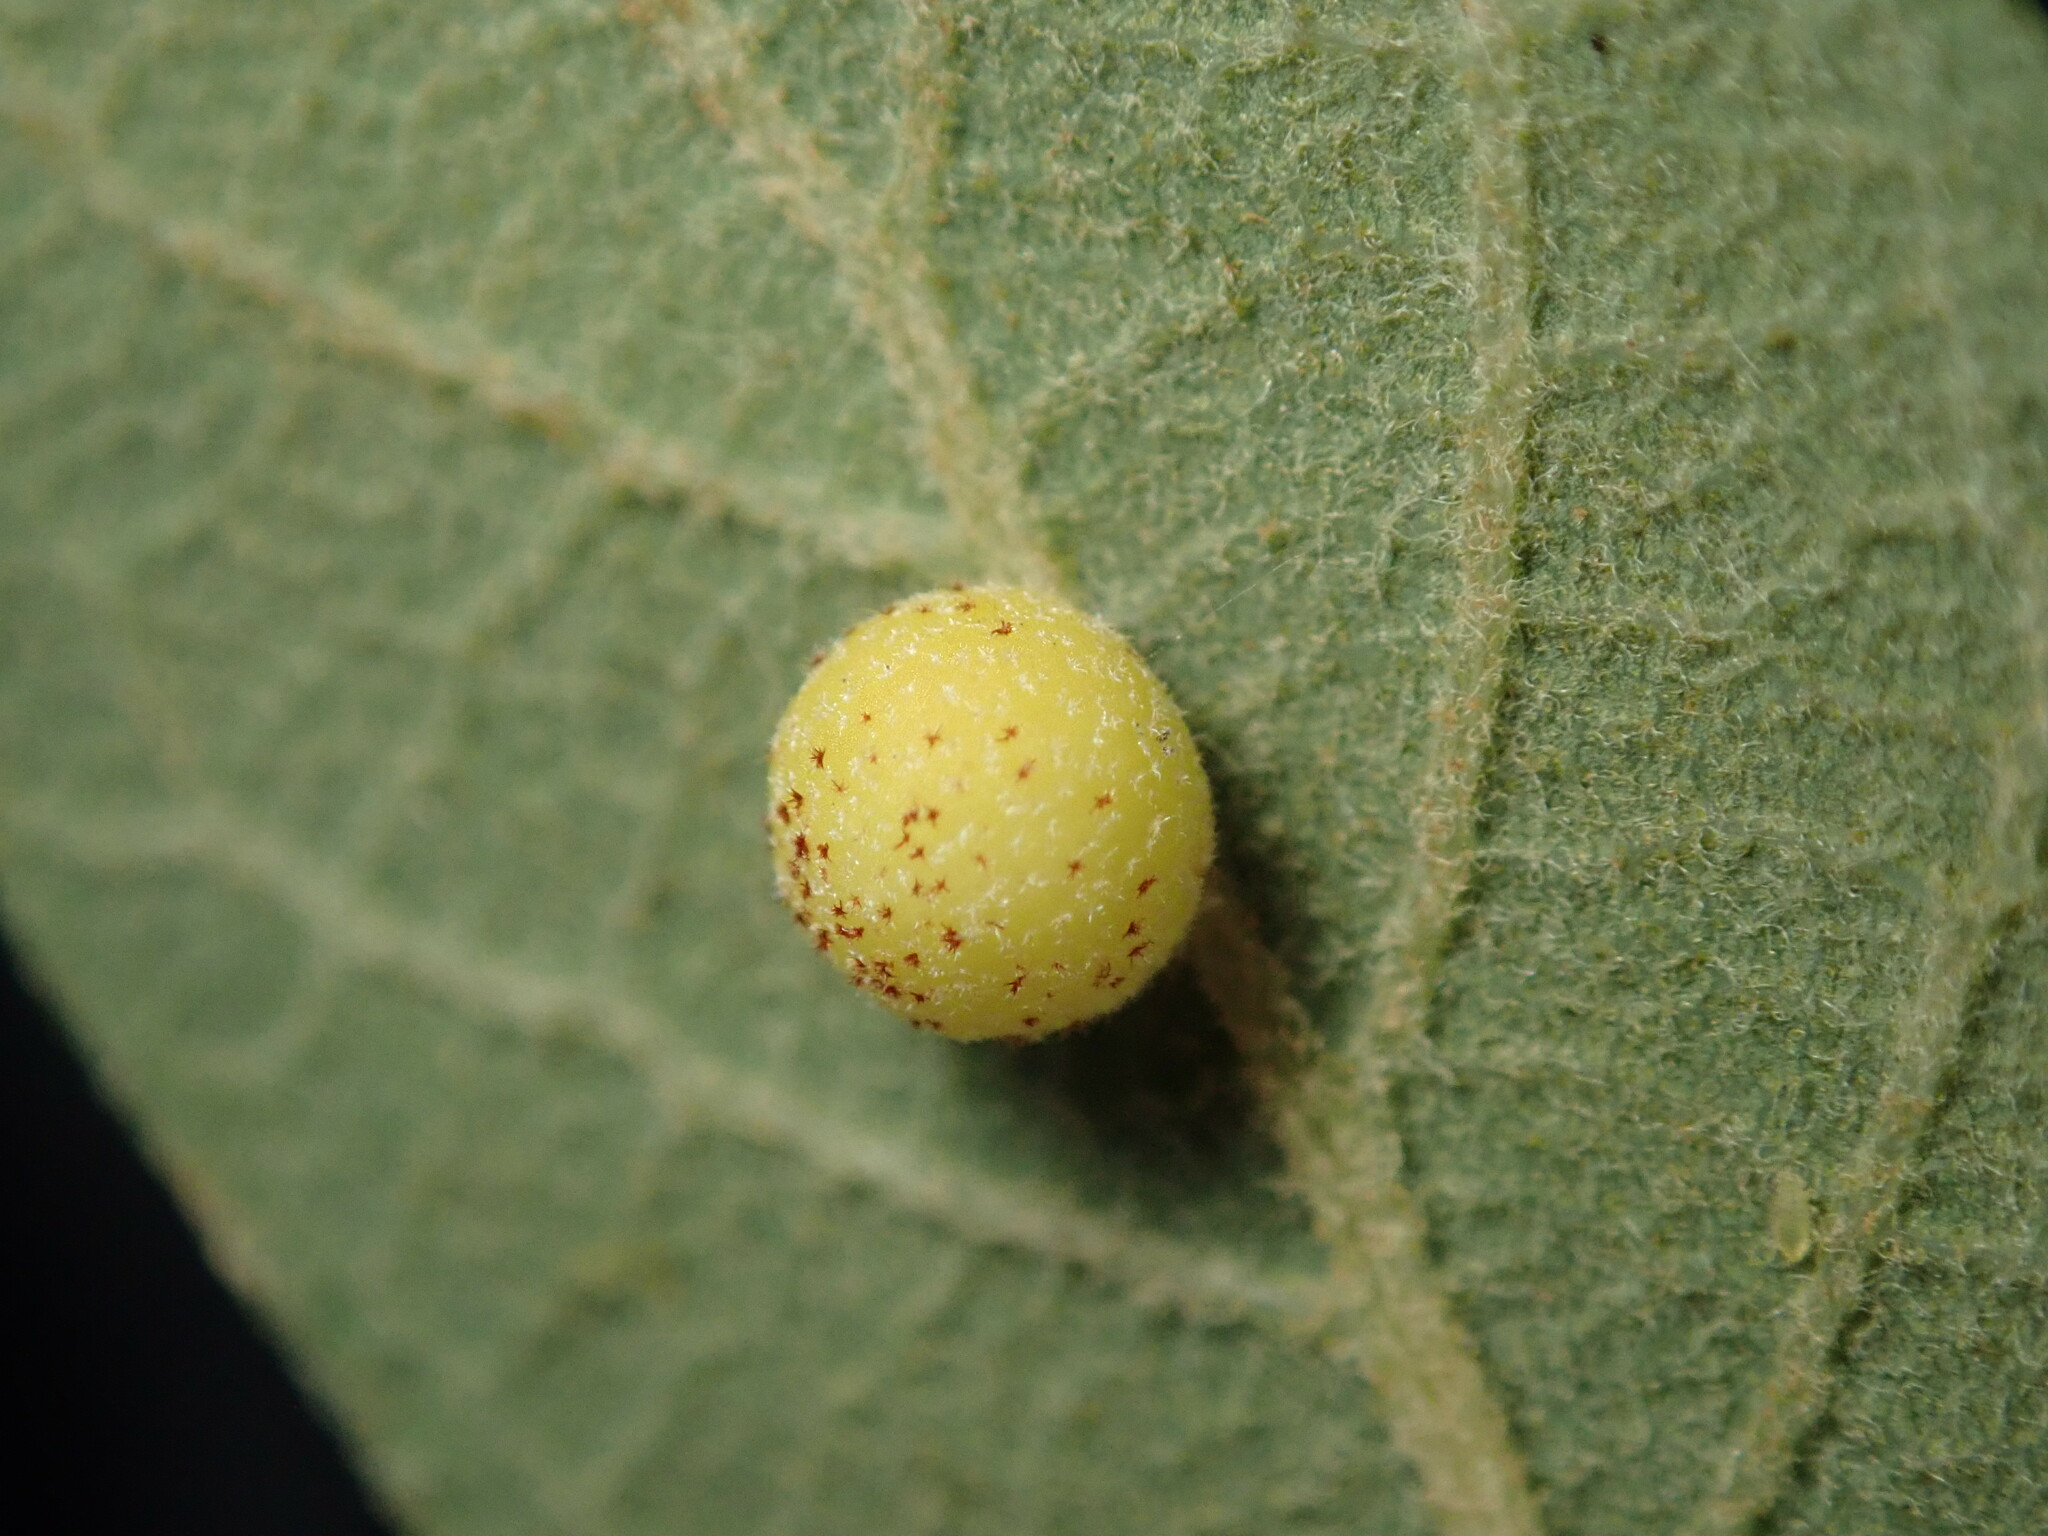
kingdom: Animalia
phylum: Arthropoda
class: Insecta
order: Hymenoptera
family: Cynipidae
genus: Cynips
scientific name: Cynips Antron tomkursari
